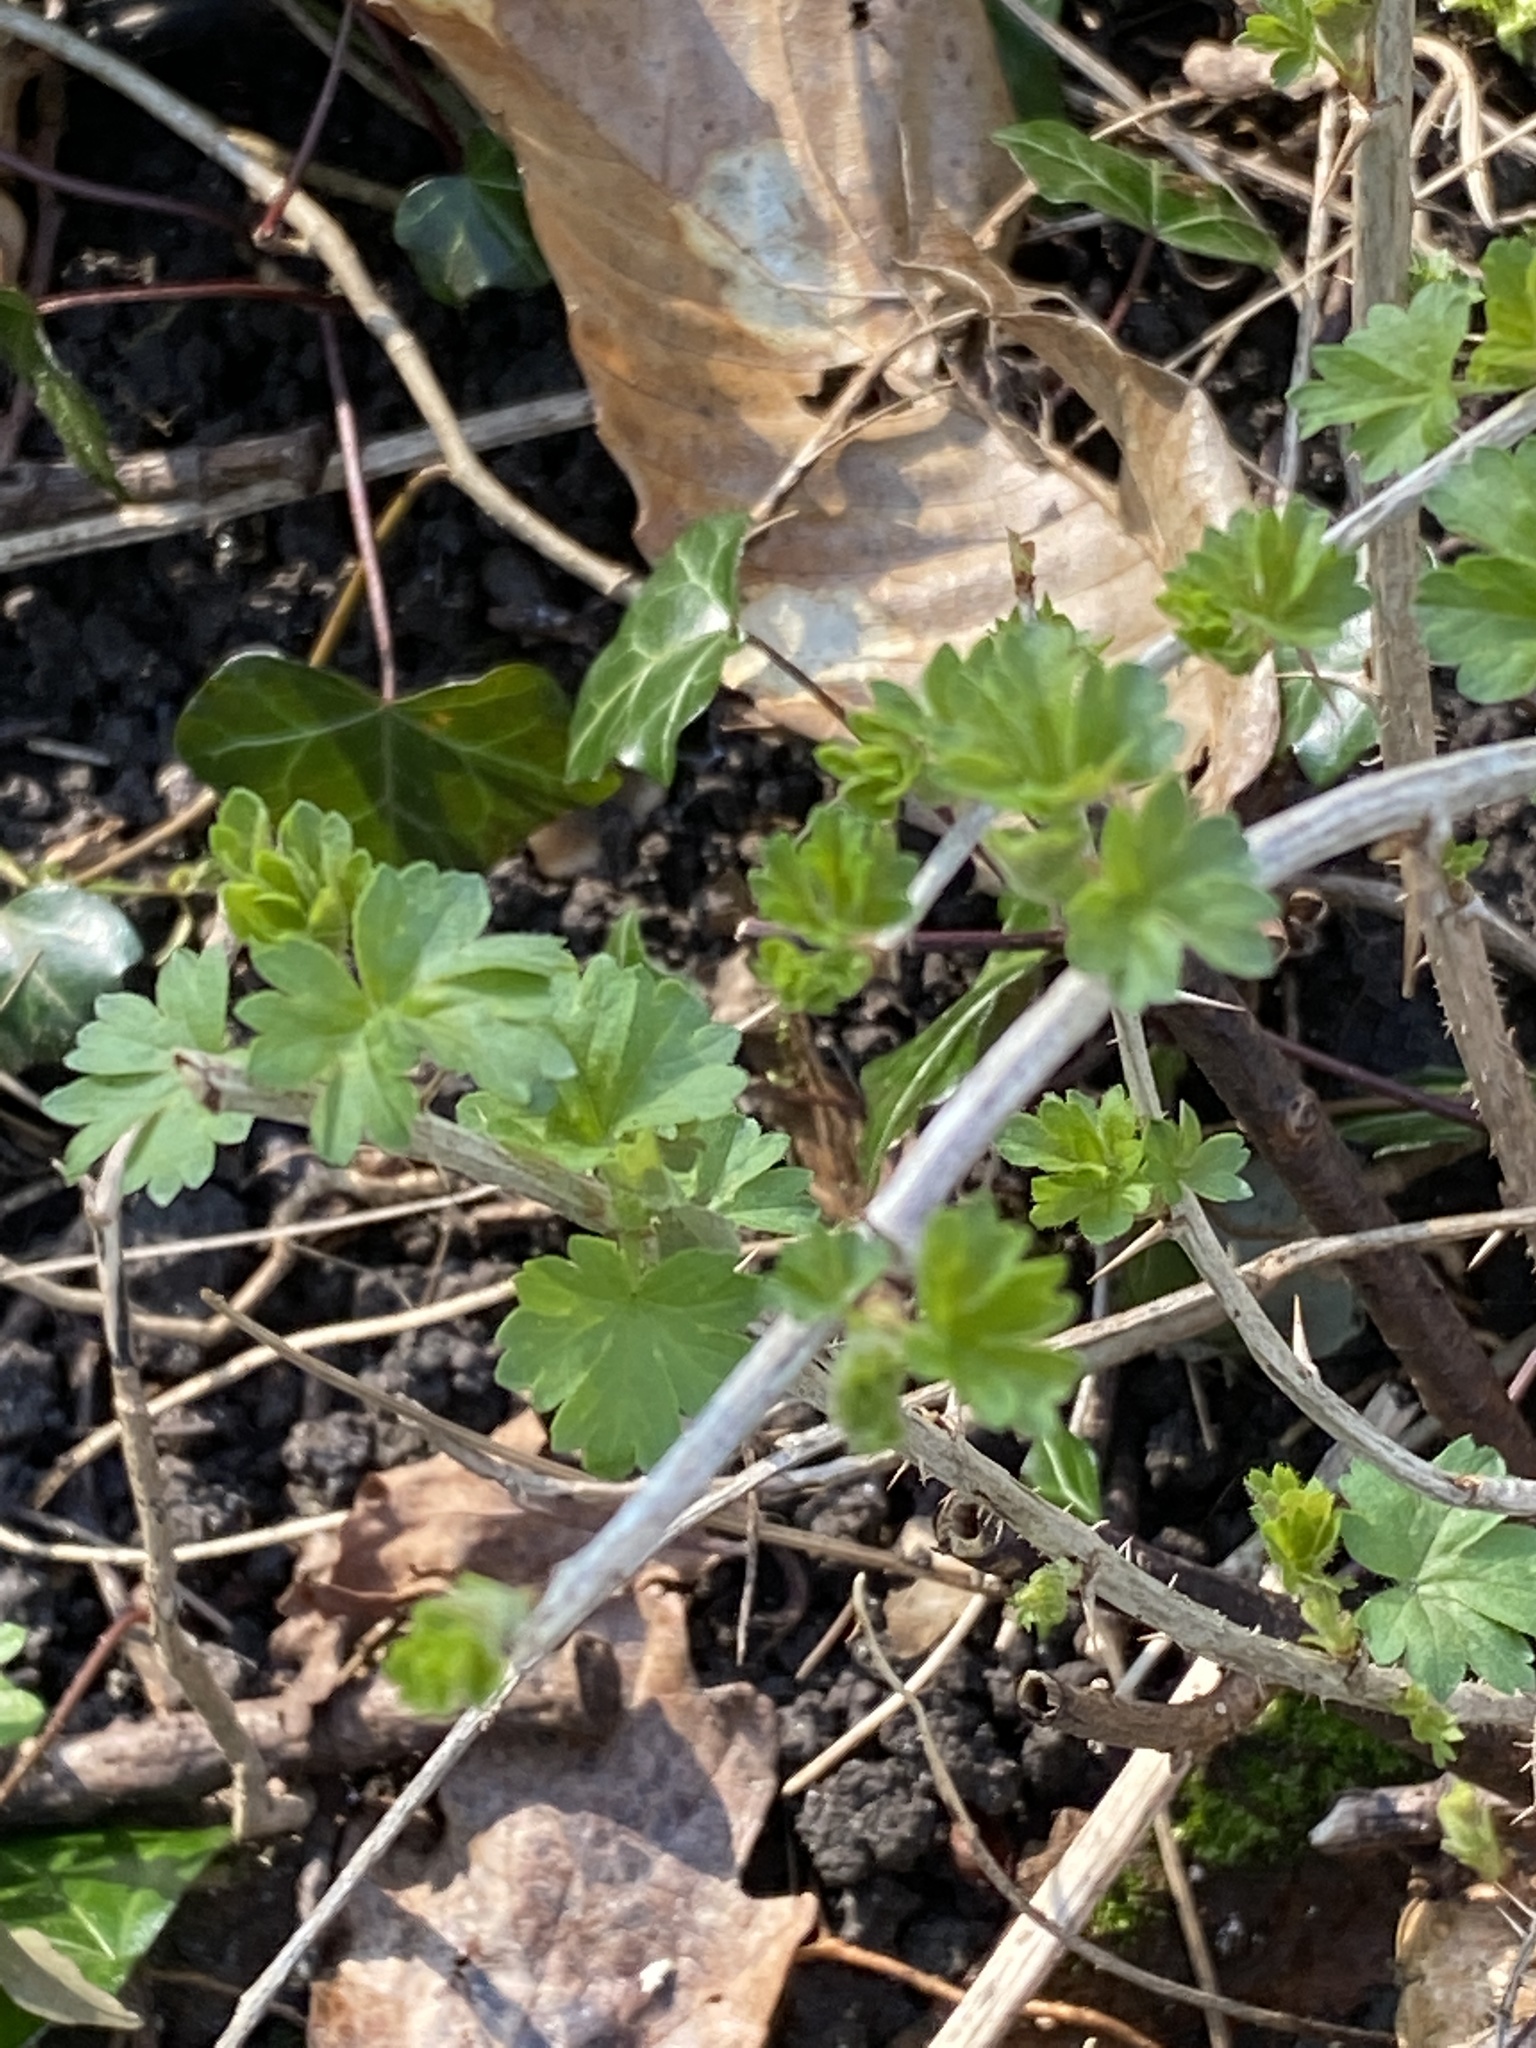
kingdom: Plantae
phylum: Tracheophyta
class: Magnoliopsida
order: Saxifragales
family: Grossulariaceae
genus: Ribes
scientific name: Ribes uva-crispa
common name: Gooseberry
